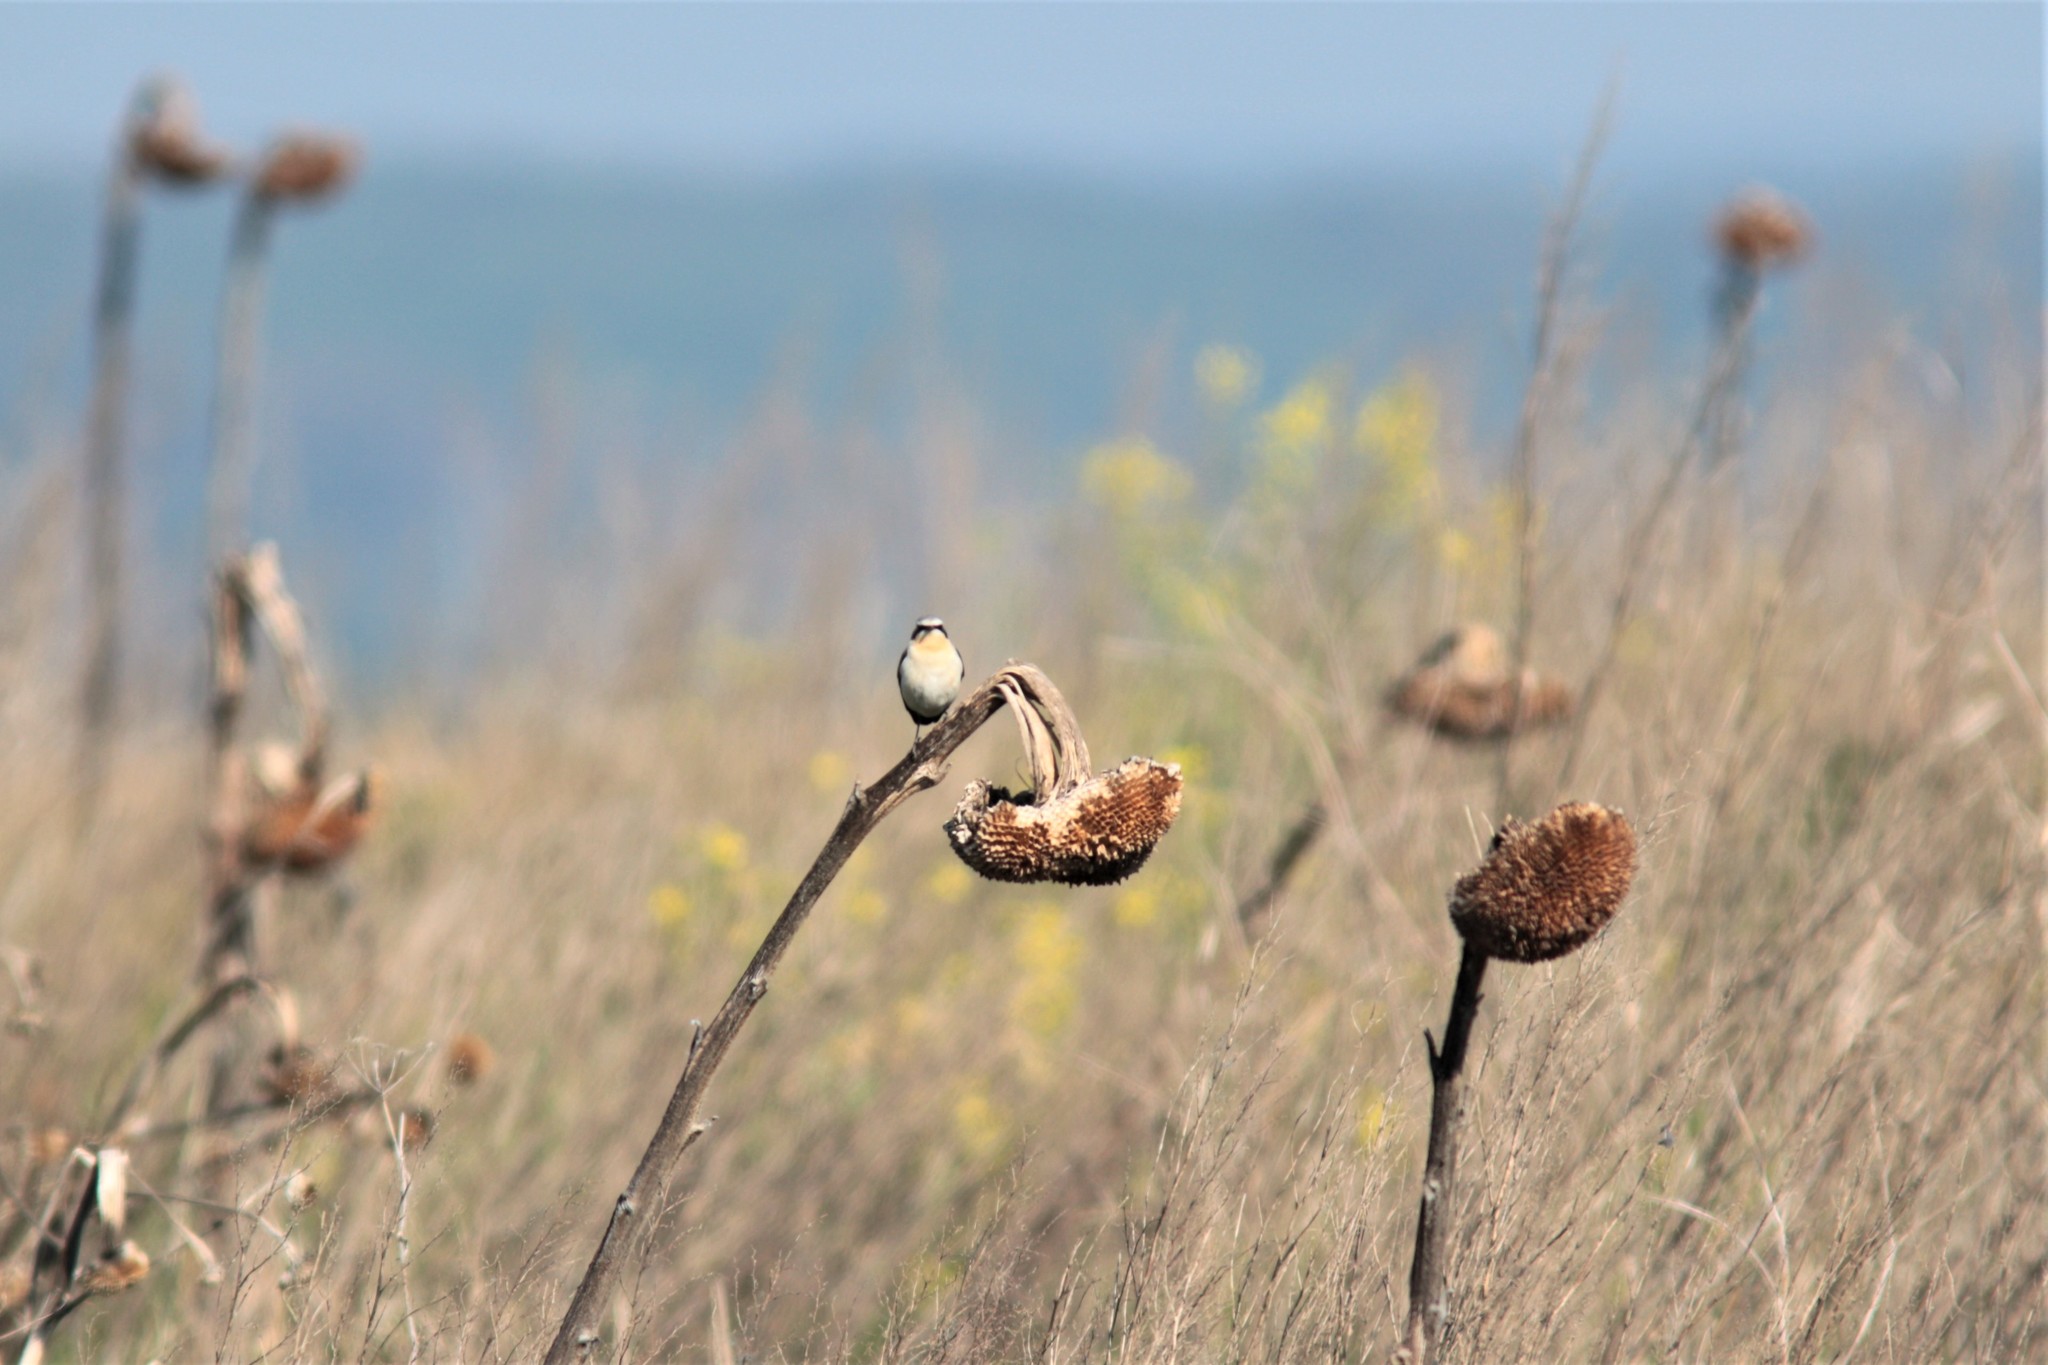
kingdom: Animalia
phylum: Chordata
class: Aves
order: Passeriformes
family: Muscicapidae
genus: Oenanthe
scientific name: Oenanthe oenanthe
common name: Northern wheatear
